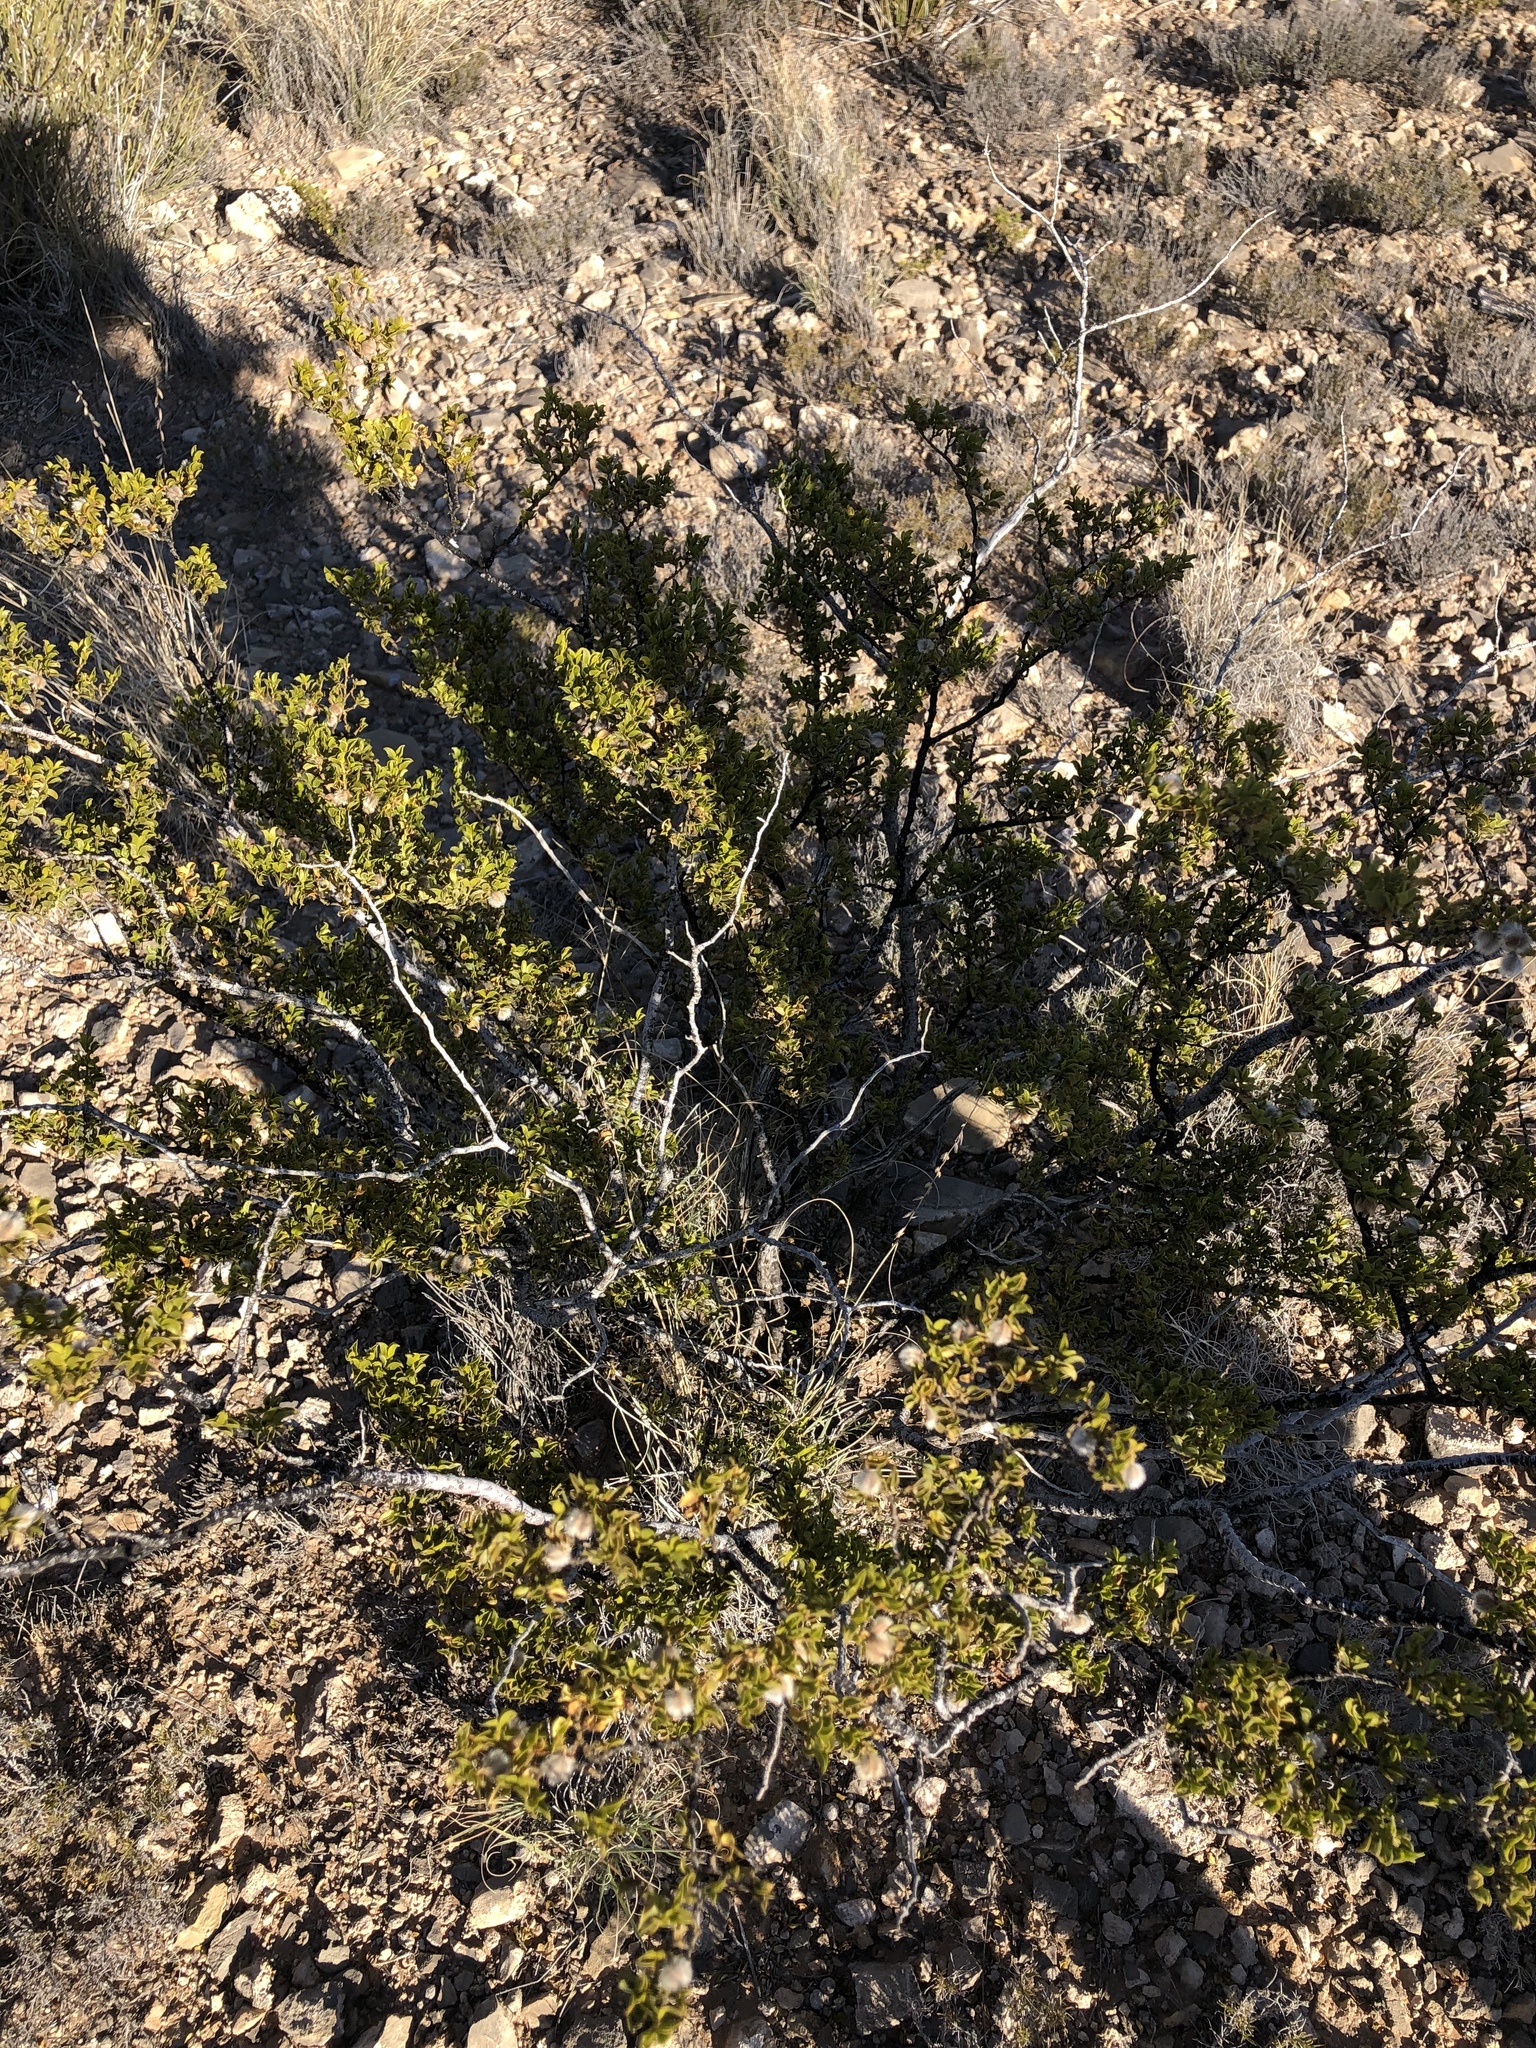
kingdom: Plantae
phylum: Tracheophyta
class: Magnoliopsida
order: Zygophyllales
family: Zygophyllaceae
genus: Larrea
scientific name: Larrea tridentata
